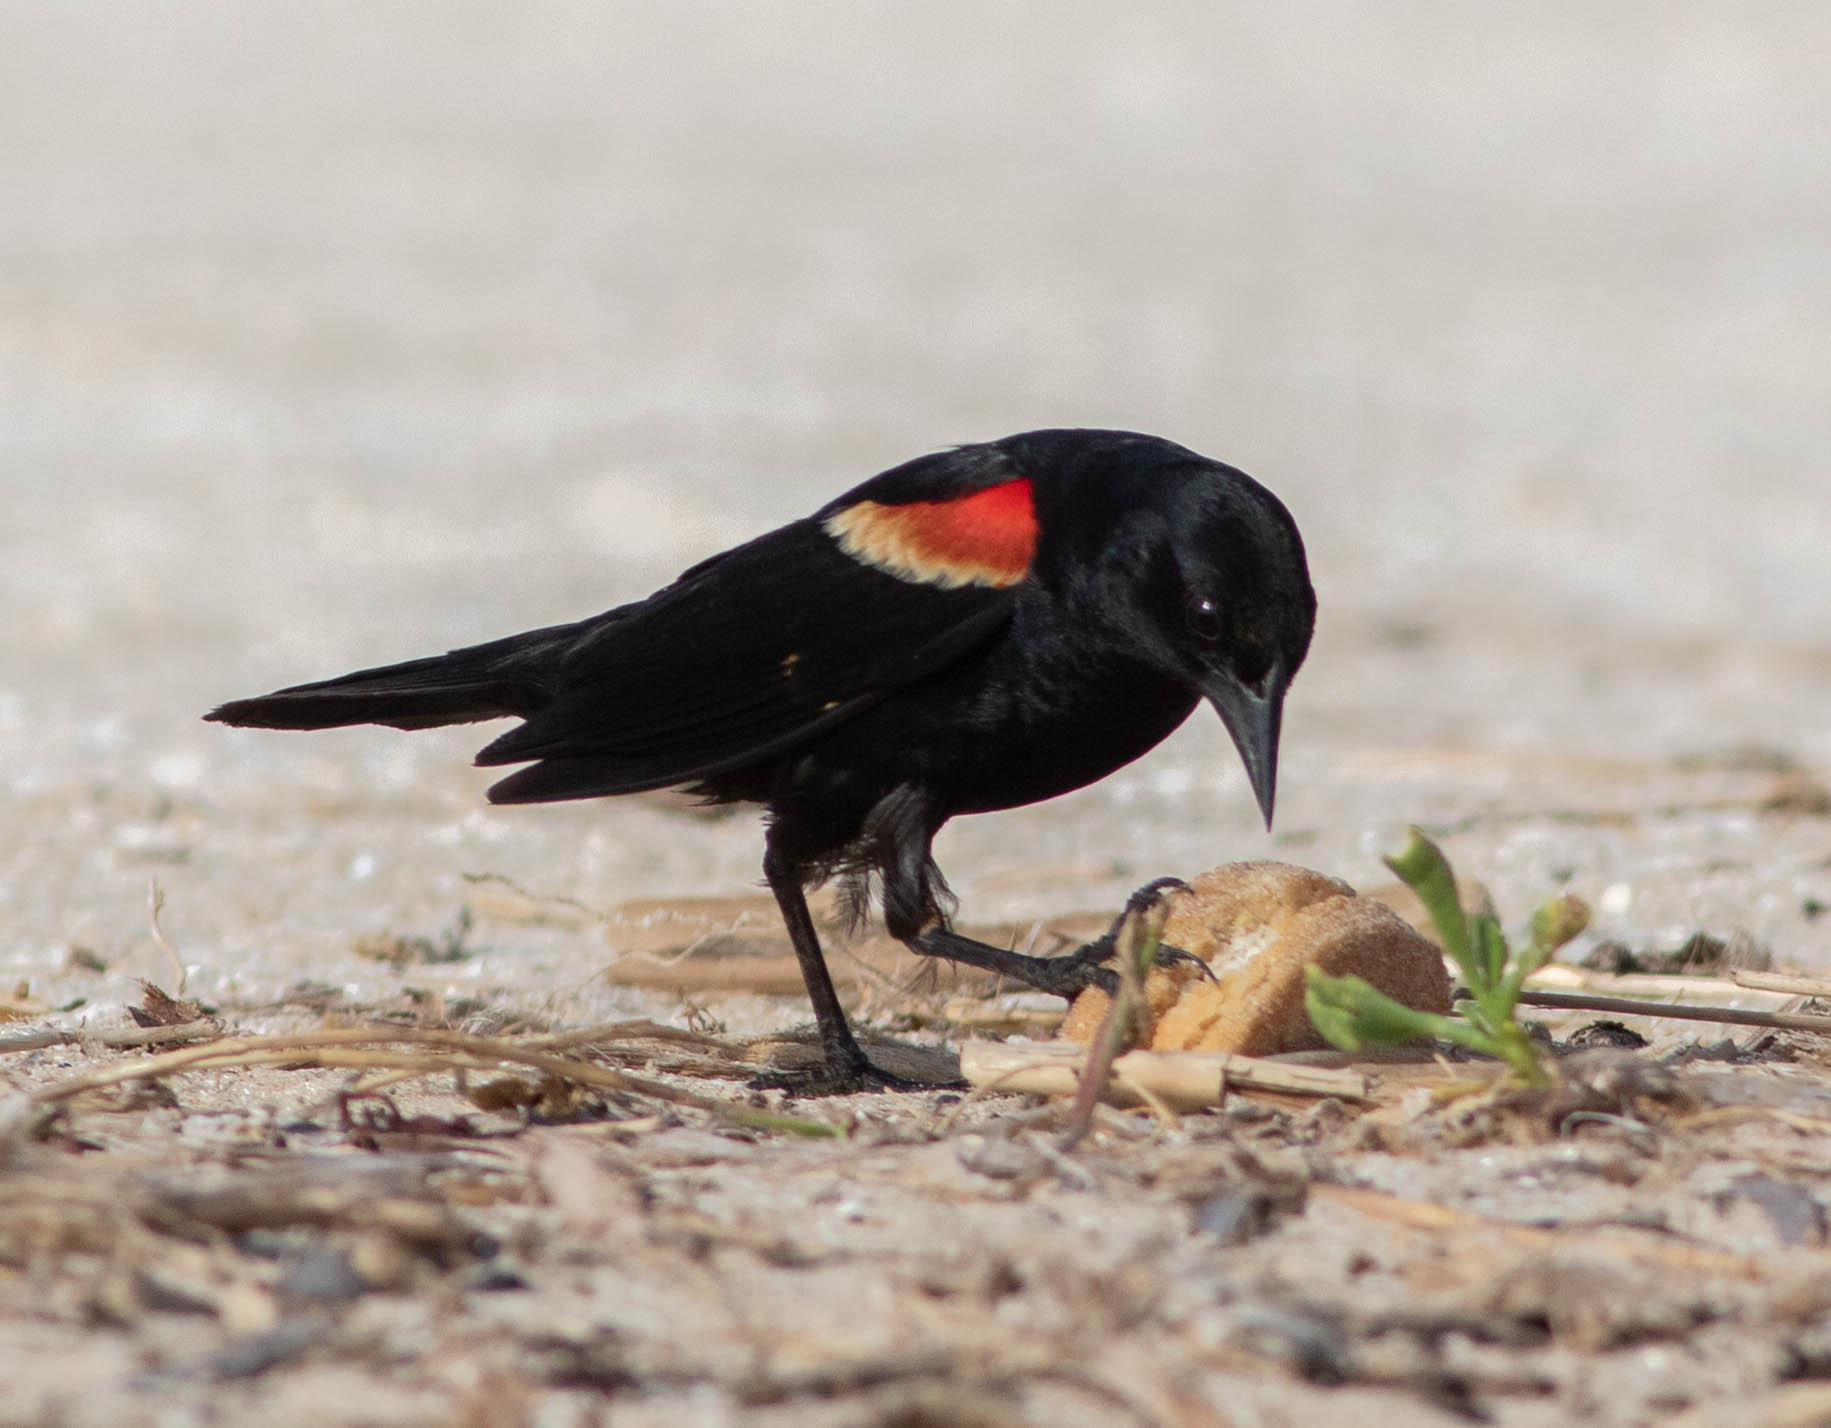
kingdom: Animalia
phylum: Chordata
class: Aves
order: Passeriformes
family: Icteridae
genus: Agelaius
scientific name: Agelaius phoeniceus
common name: Red-winged blackbird
